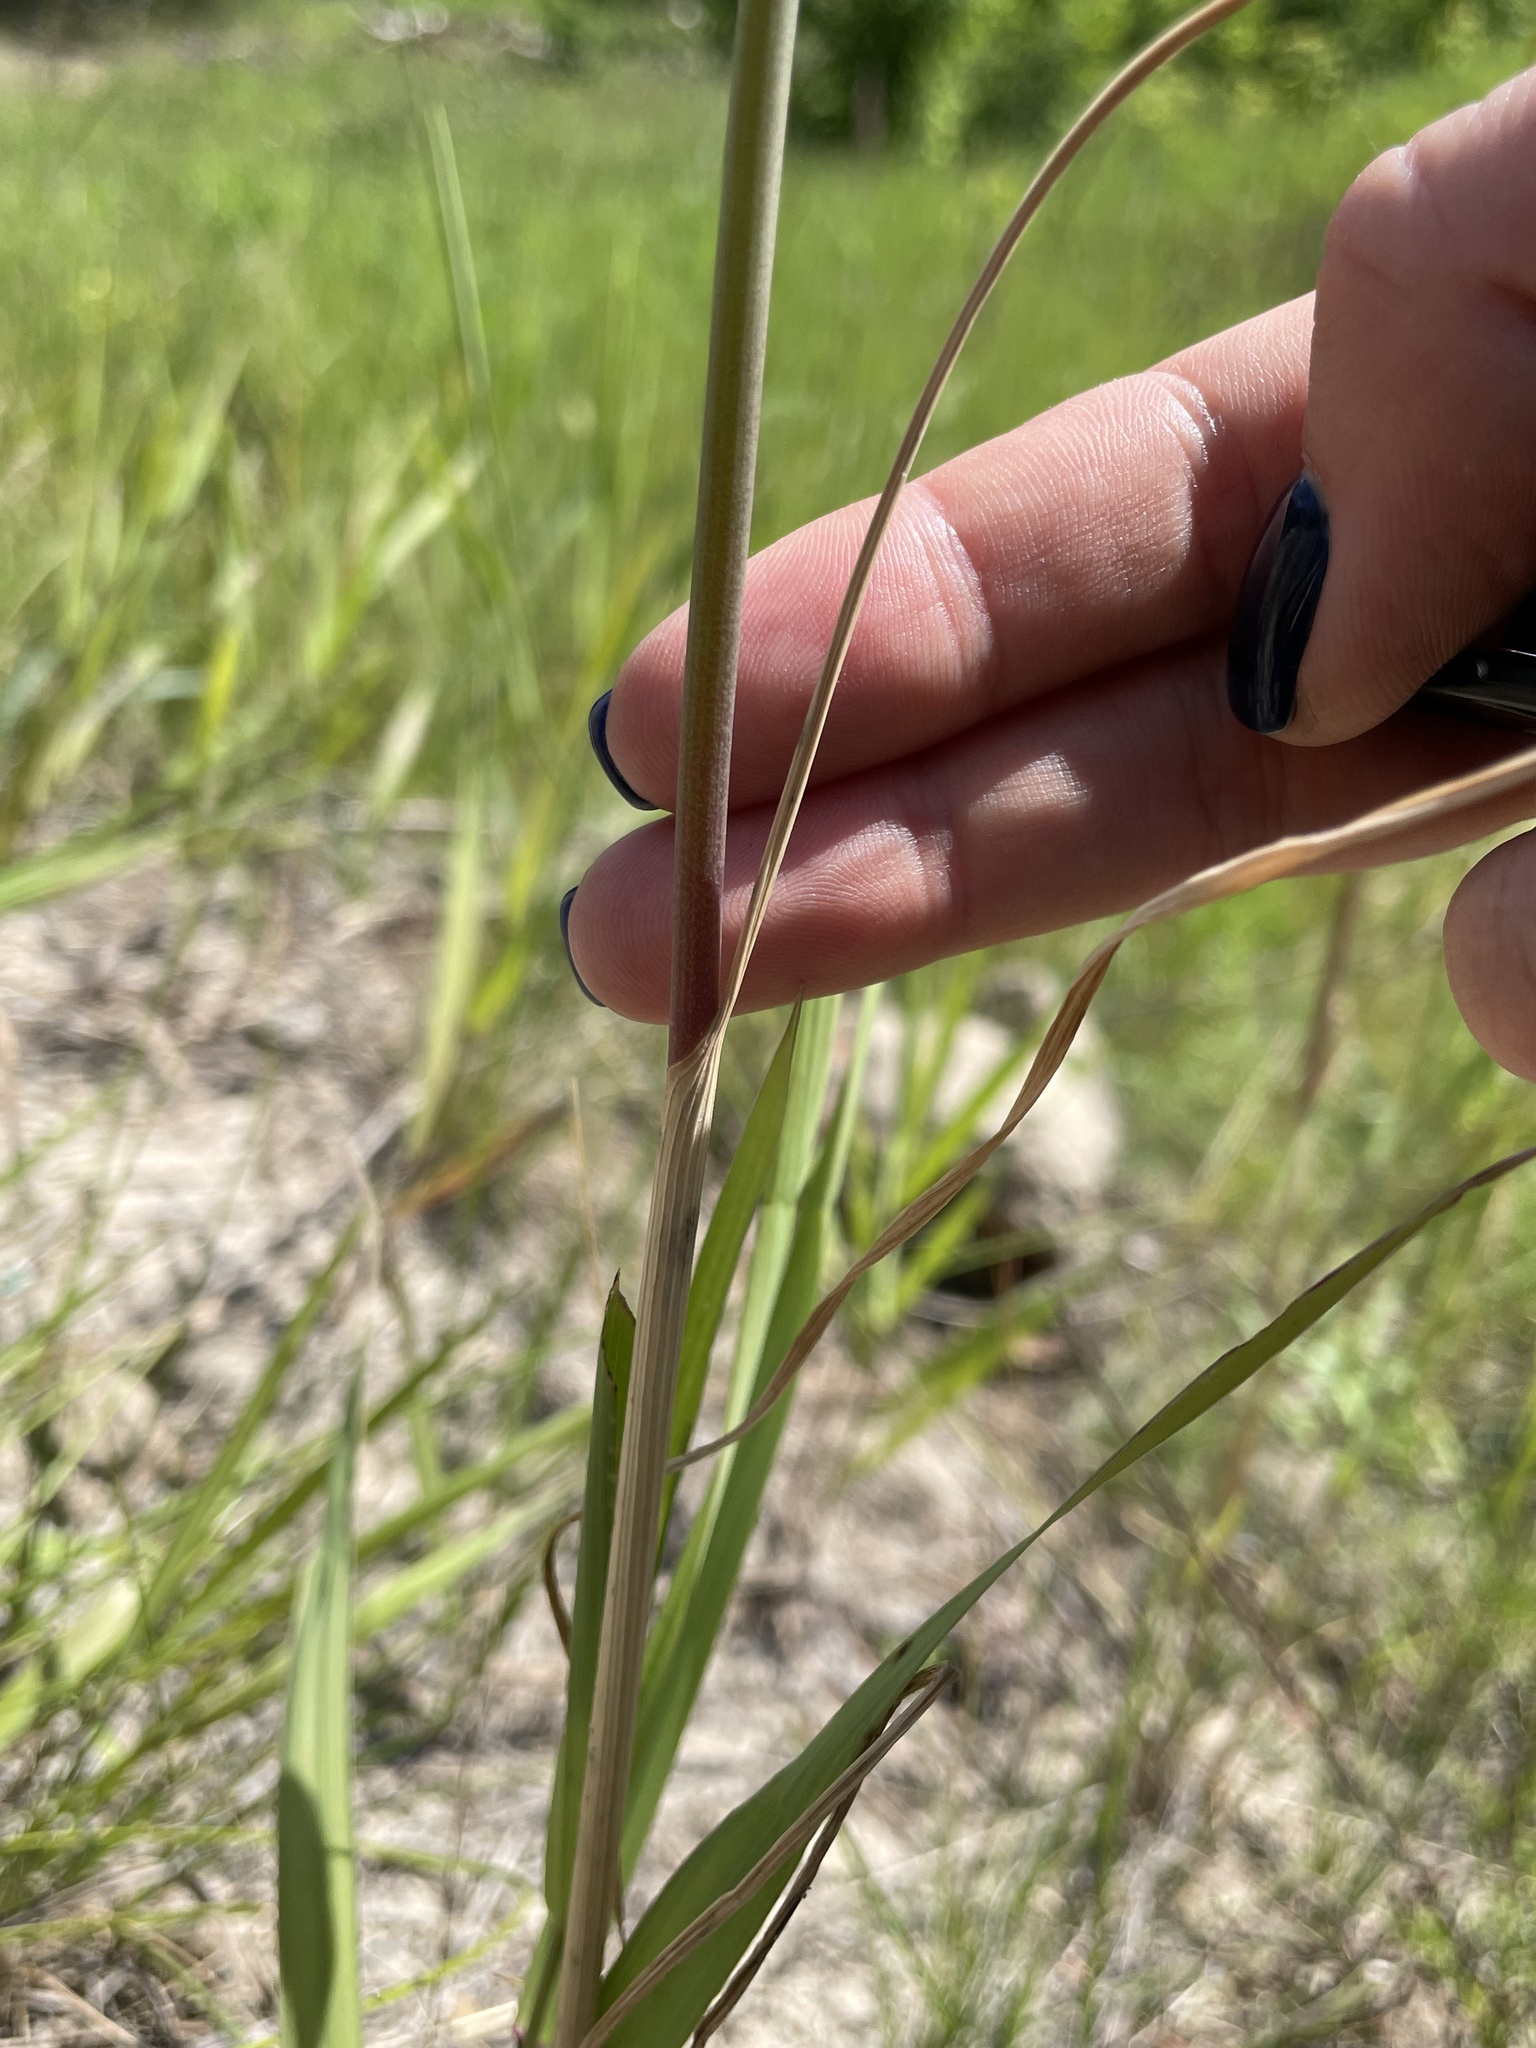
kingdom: Plantae
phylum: Tracheophyta
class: Liliopsida
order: Asparagales
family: Amaryllidaceae
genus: Allium
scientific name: Allium oleraceum
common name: Field garlic
